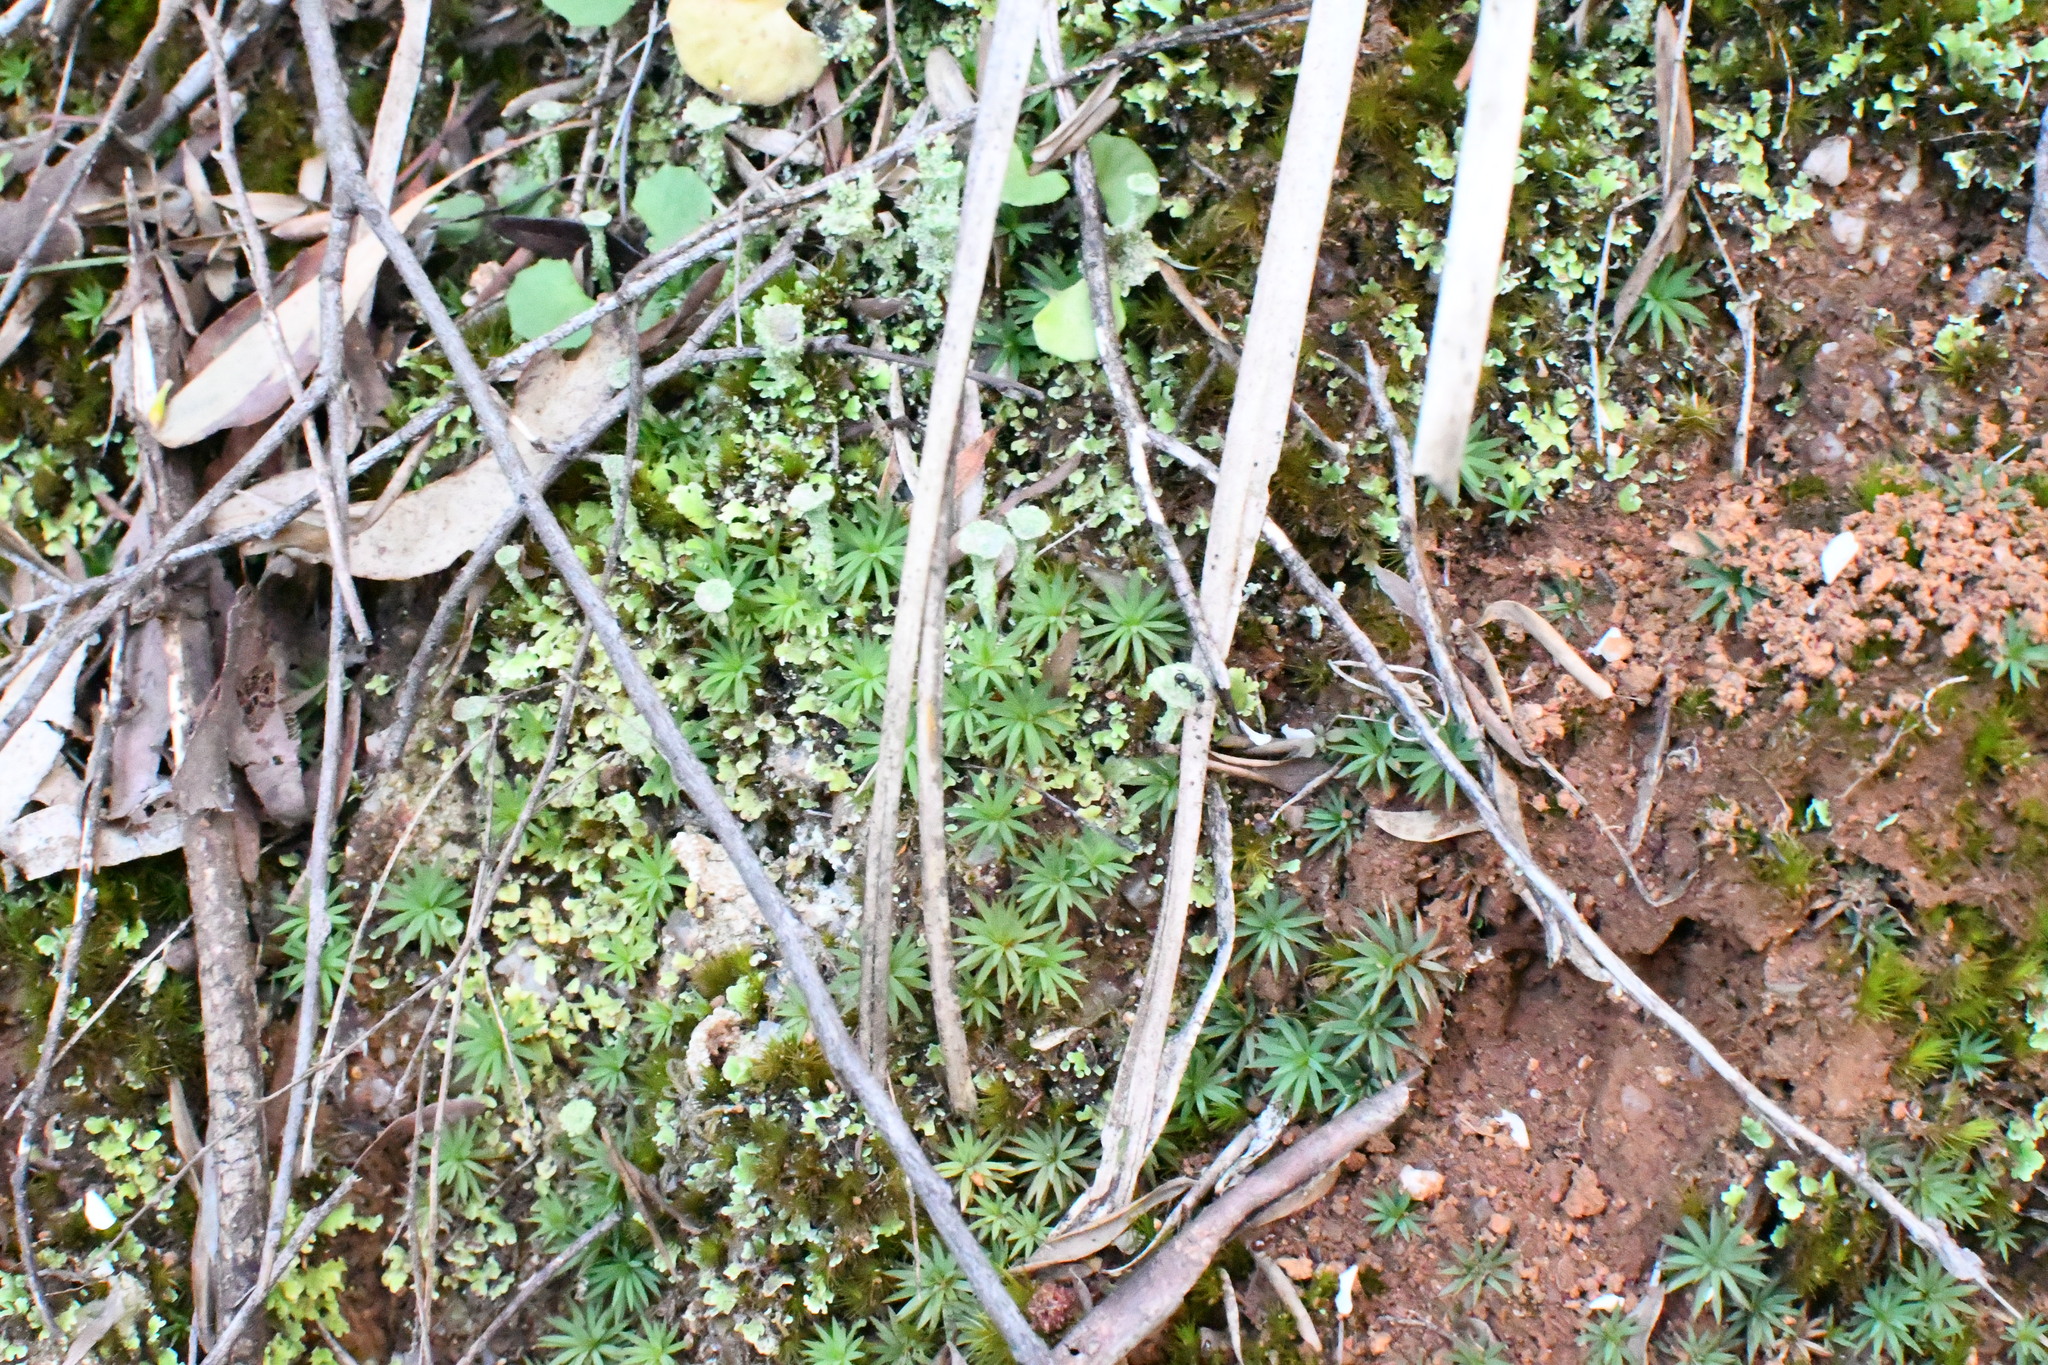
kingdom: Plantae
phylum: Bryophyta
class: Polytrichopsida
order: Polytrichales
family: Polytrichaceae
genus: Dawsonia
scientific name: Dawsonia longiseta
